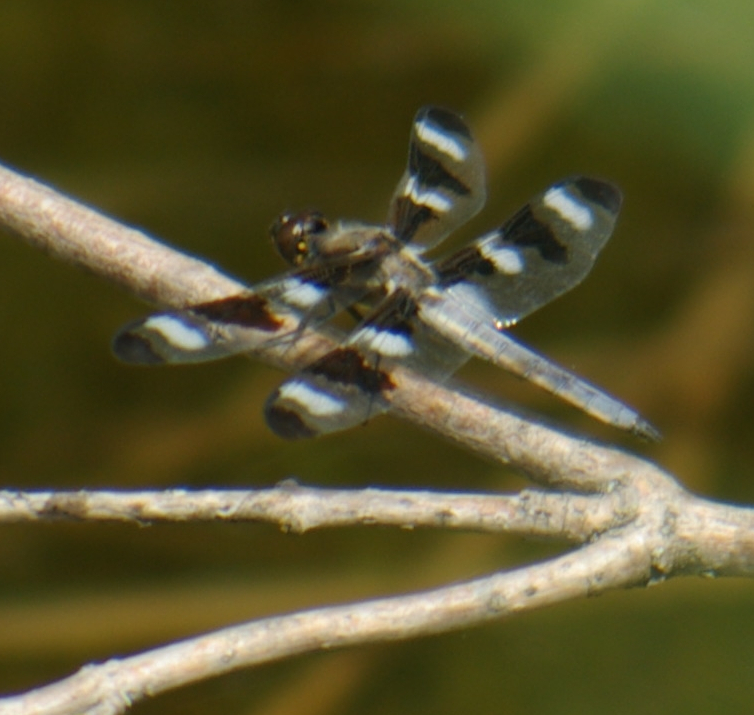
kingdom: Animalia
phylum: Arthropoda
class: Insecta
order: Odonata
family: Libellulidae
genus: Libellula
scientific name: Libellula pulchella
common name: Twelve-spotted skimmer
